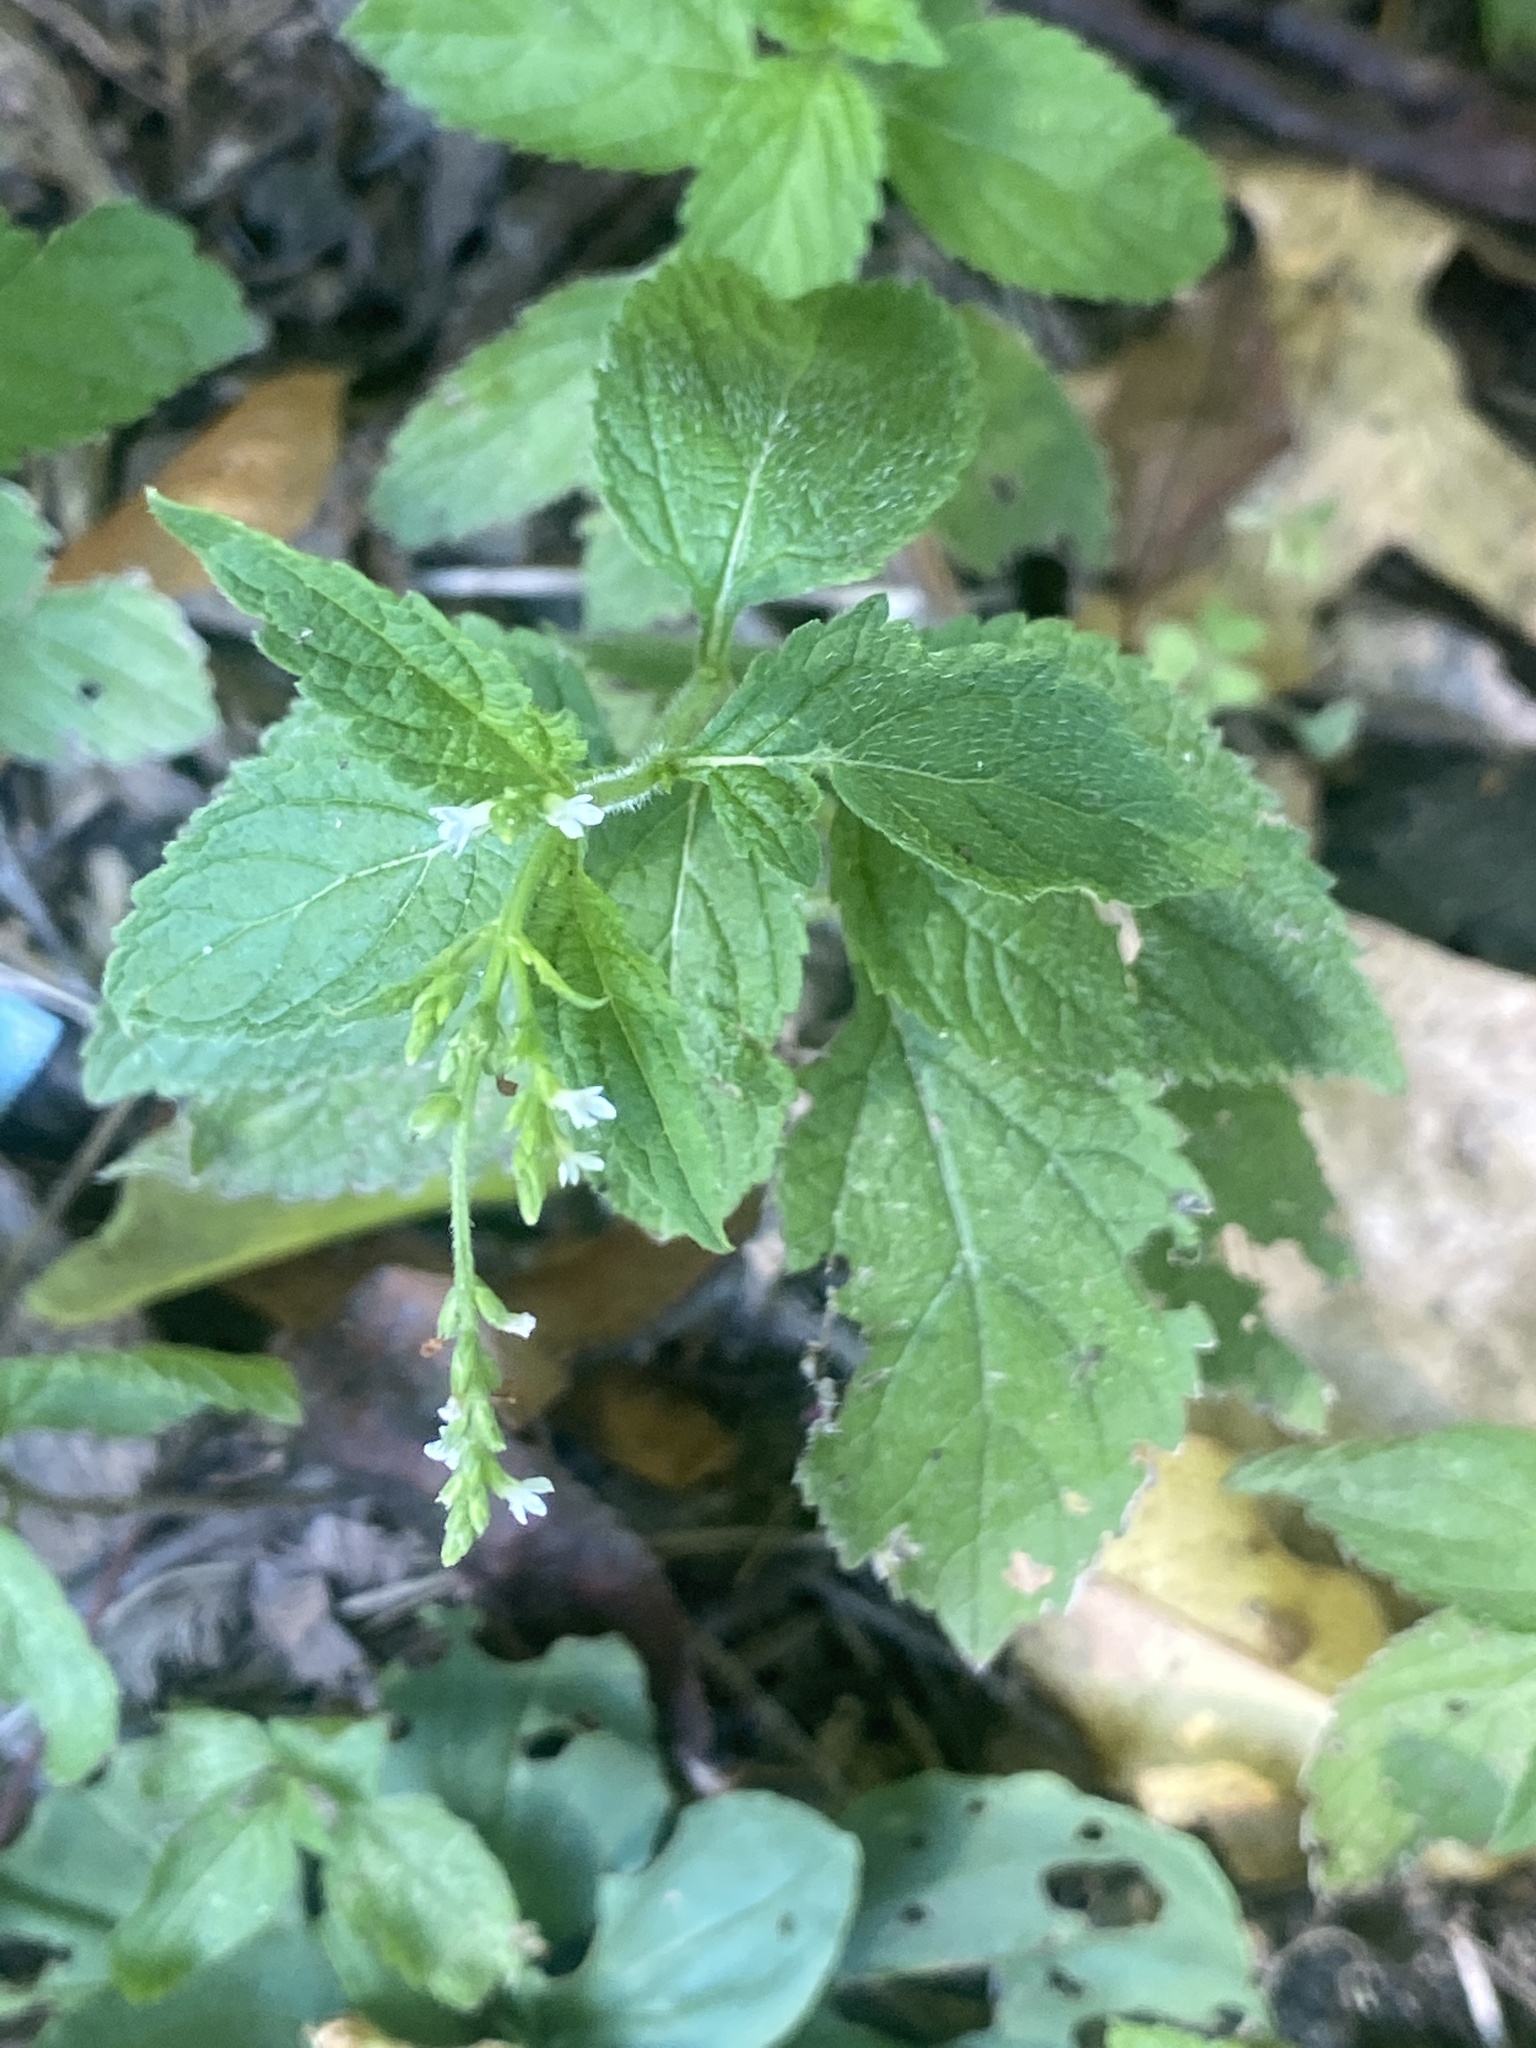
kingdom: Plantae
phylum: Tracheophyta
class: Magnoliopsida
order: Lamiales
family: Verbenaceae
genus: Verbena
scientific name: Verbena urticifolia
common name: Nettle-leaved vervain
